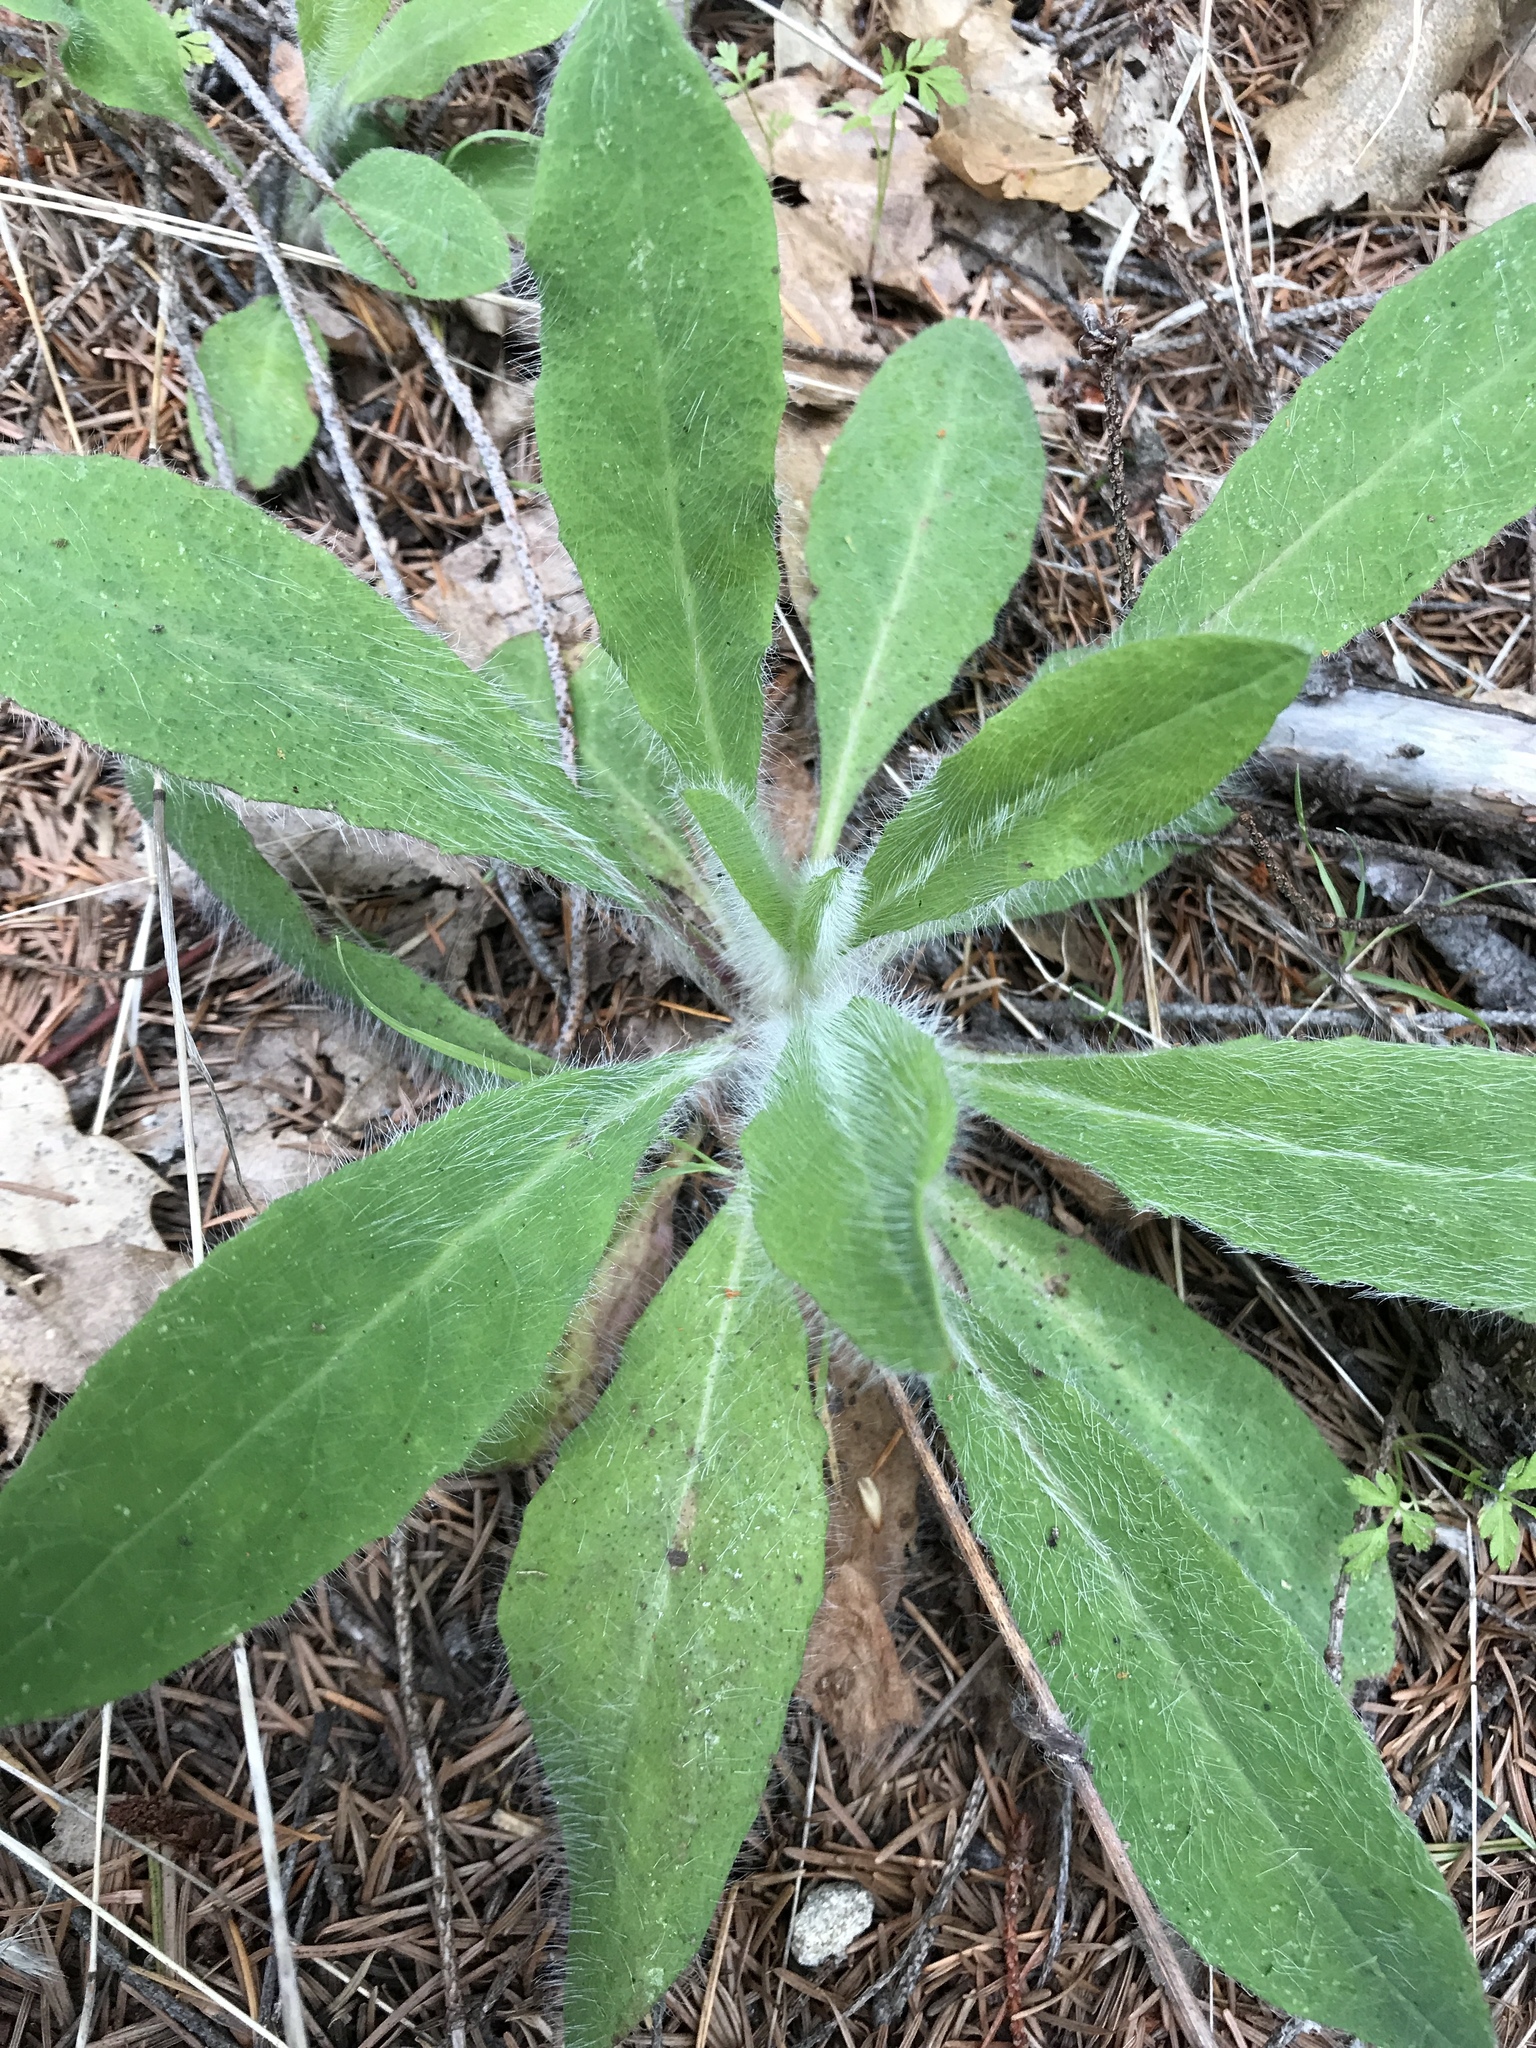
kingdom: Plantae
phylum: Tracheophyta
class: Magnoliopsida
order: Asterales
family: Asteraceae
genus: Hieracium
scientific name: Hieracium albiflorum
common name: White hawkweed
